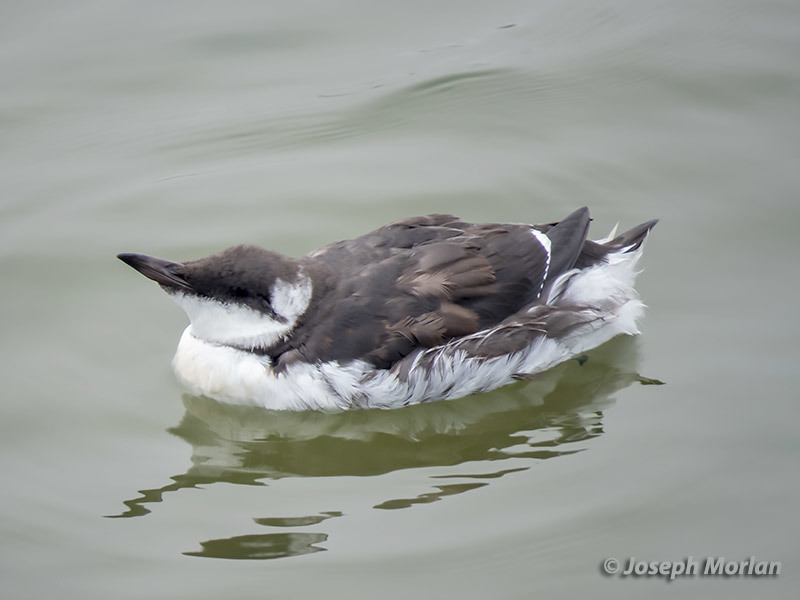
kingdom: Animalia
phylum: Chordata
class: Aves
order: Charadriiformes
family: Alcidae
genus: Uria
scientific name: Uria aalge
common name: Common murre
